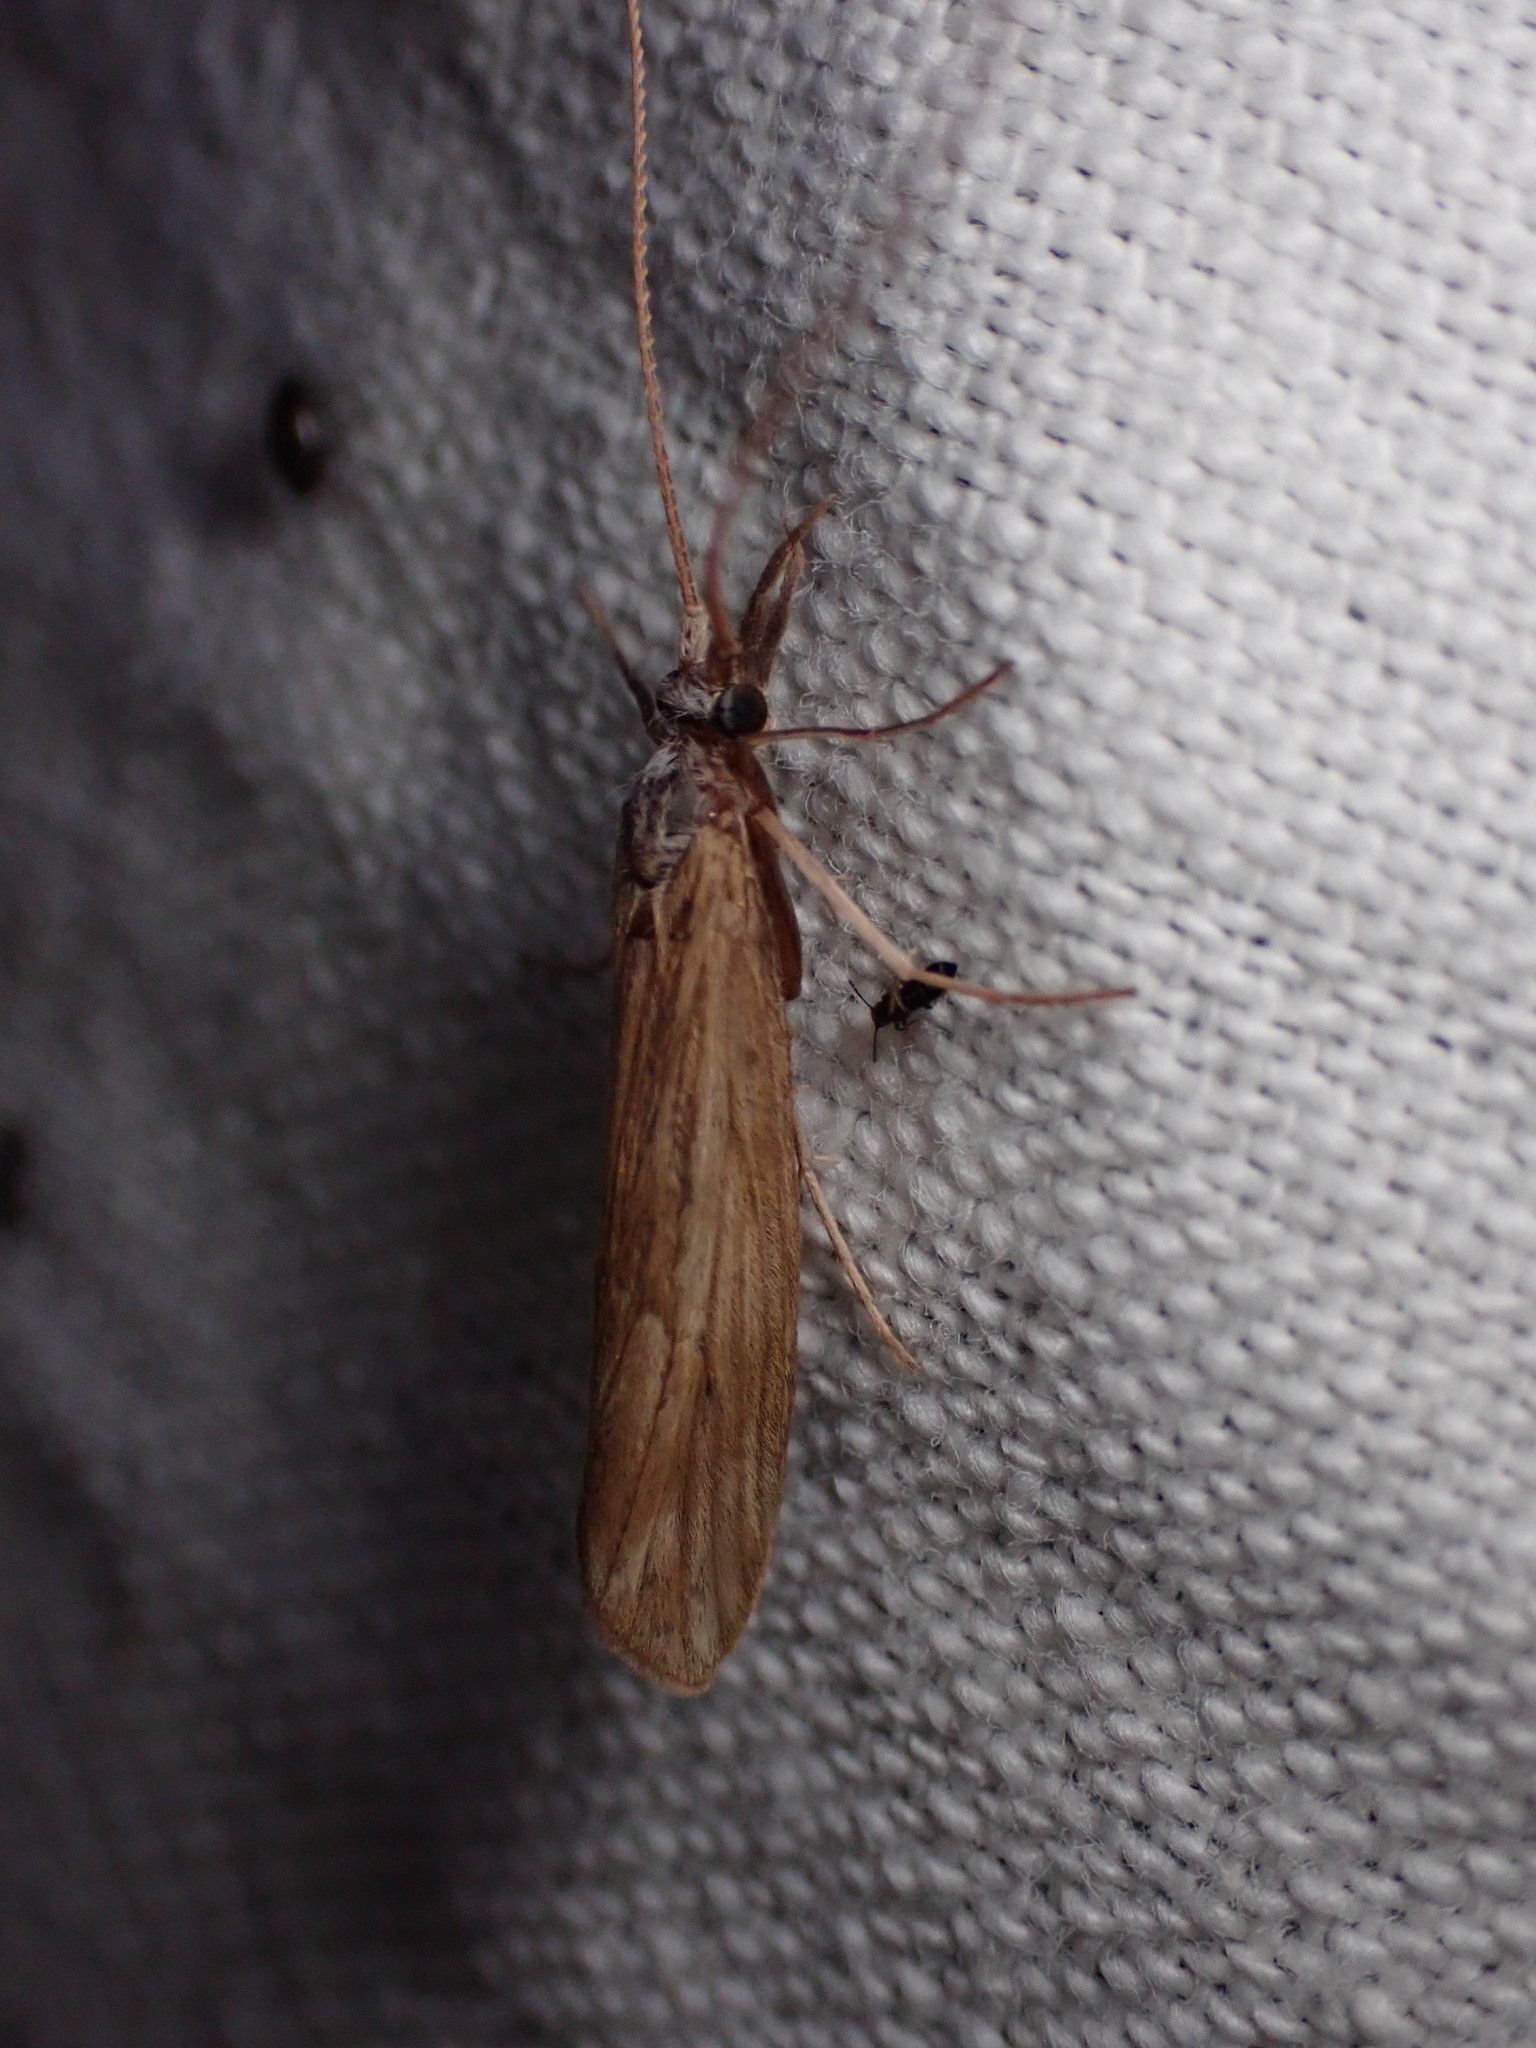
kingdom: Animalia
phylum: Arthropoda
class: Insecta
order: Trichoptera
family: Odontoceridae
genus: Odontocerum
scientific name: Odontocerum albicorne
